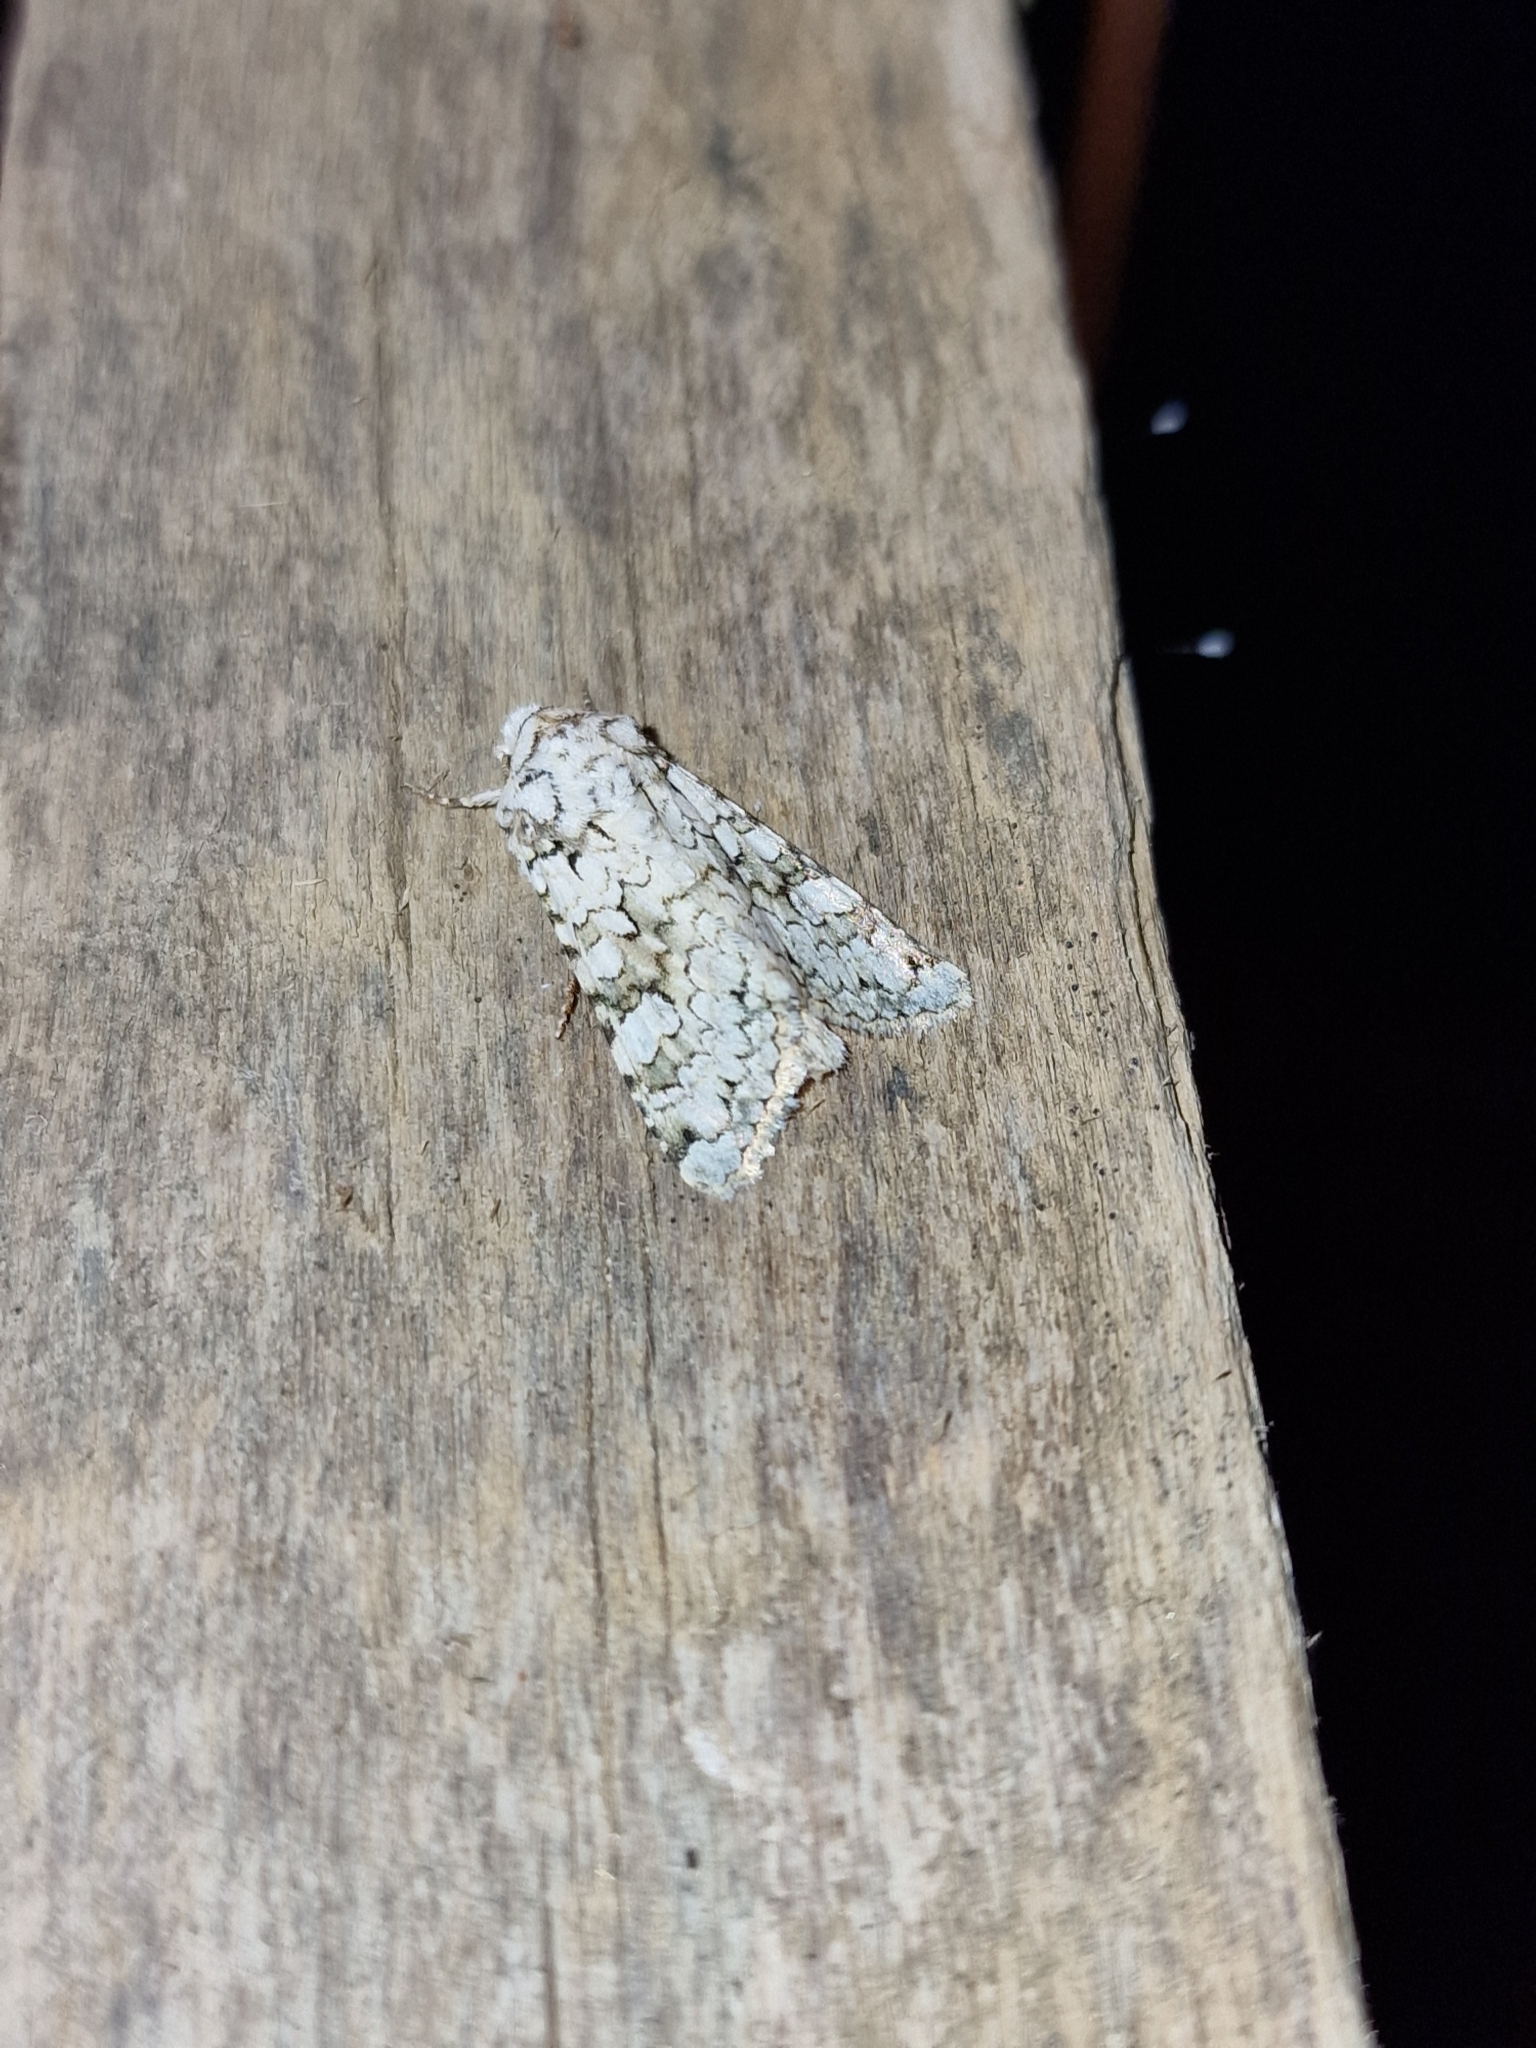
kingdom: Animalia
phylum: Arthropoda
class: Insecta
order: Lepidoptera
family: Noctuidae
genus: Hecatera
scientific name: Hecatera cappa
